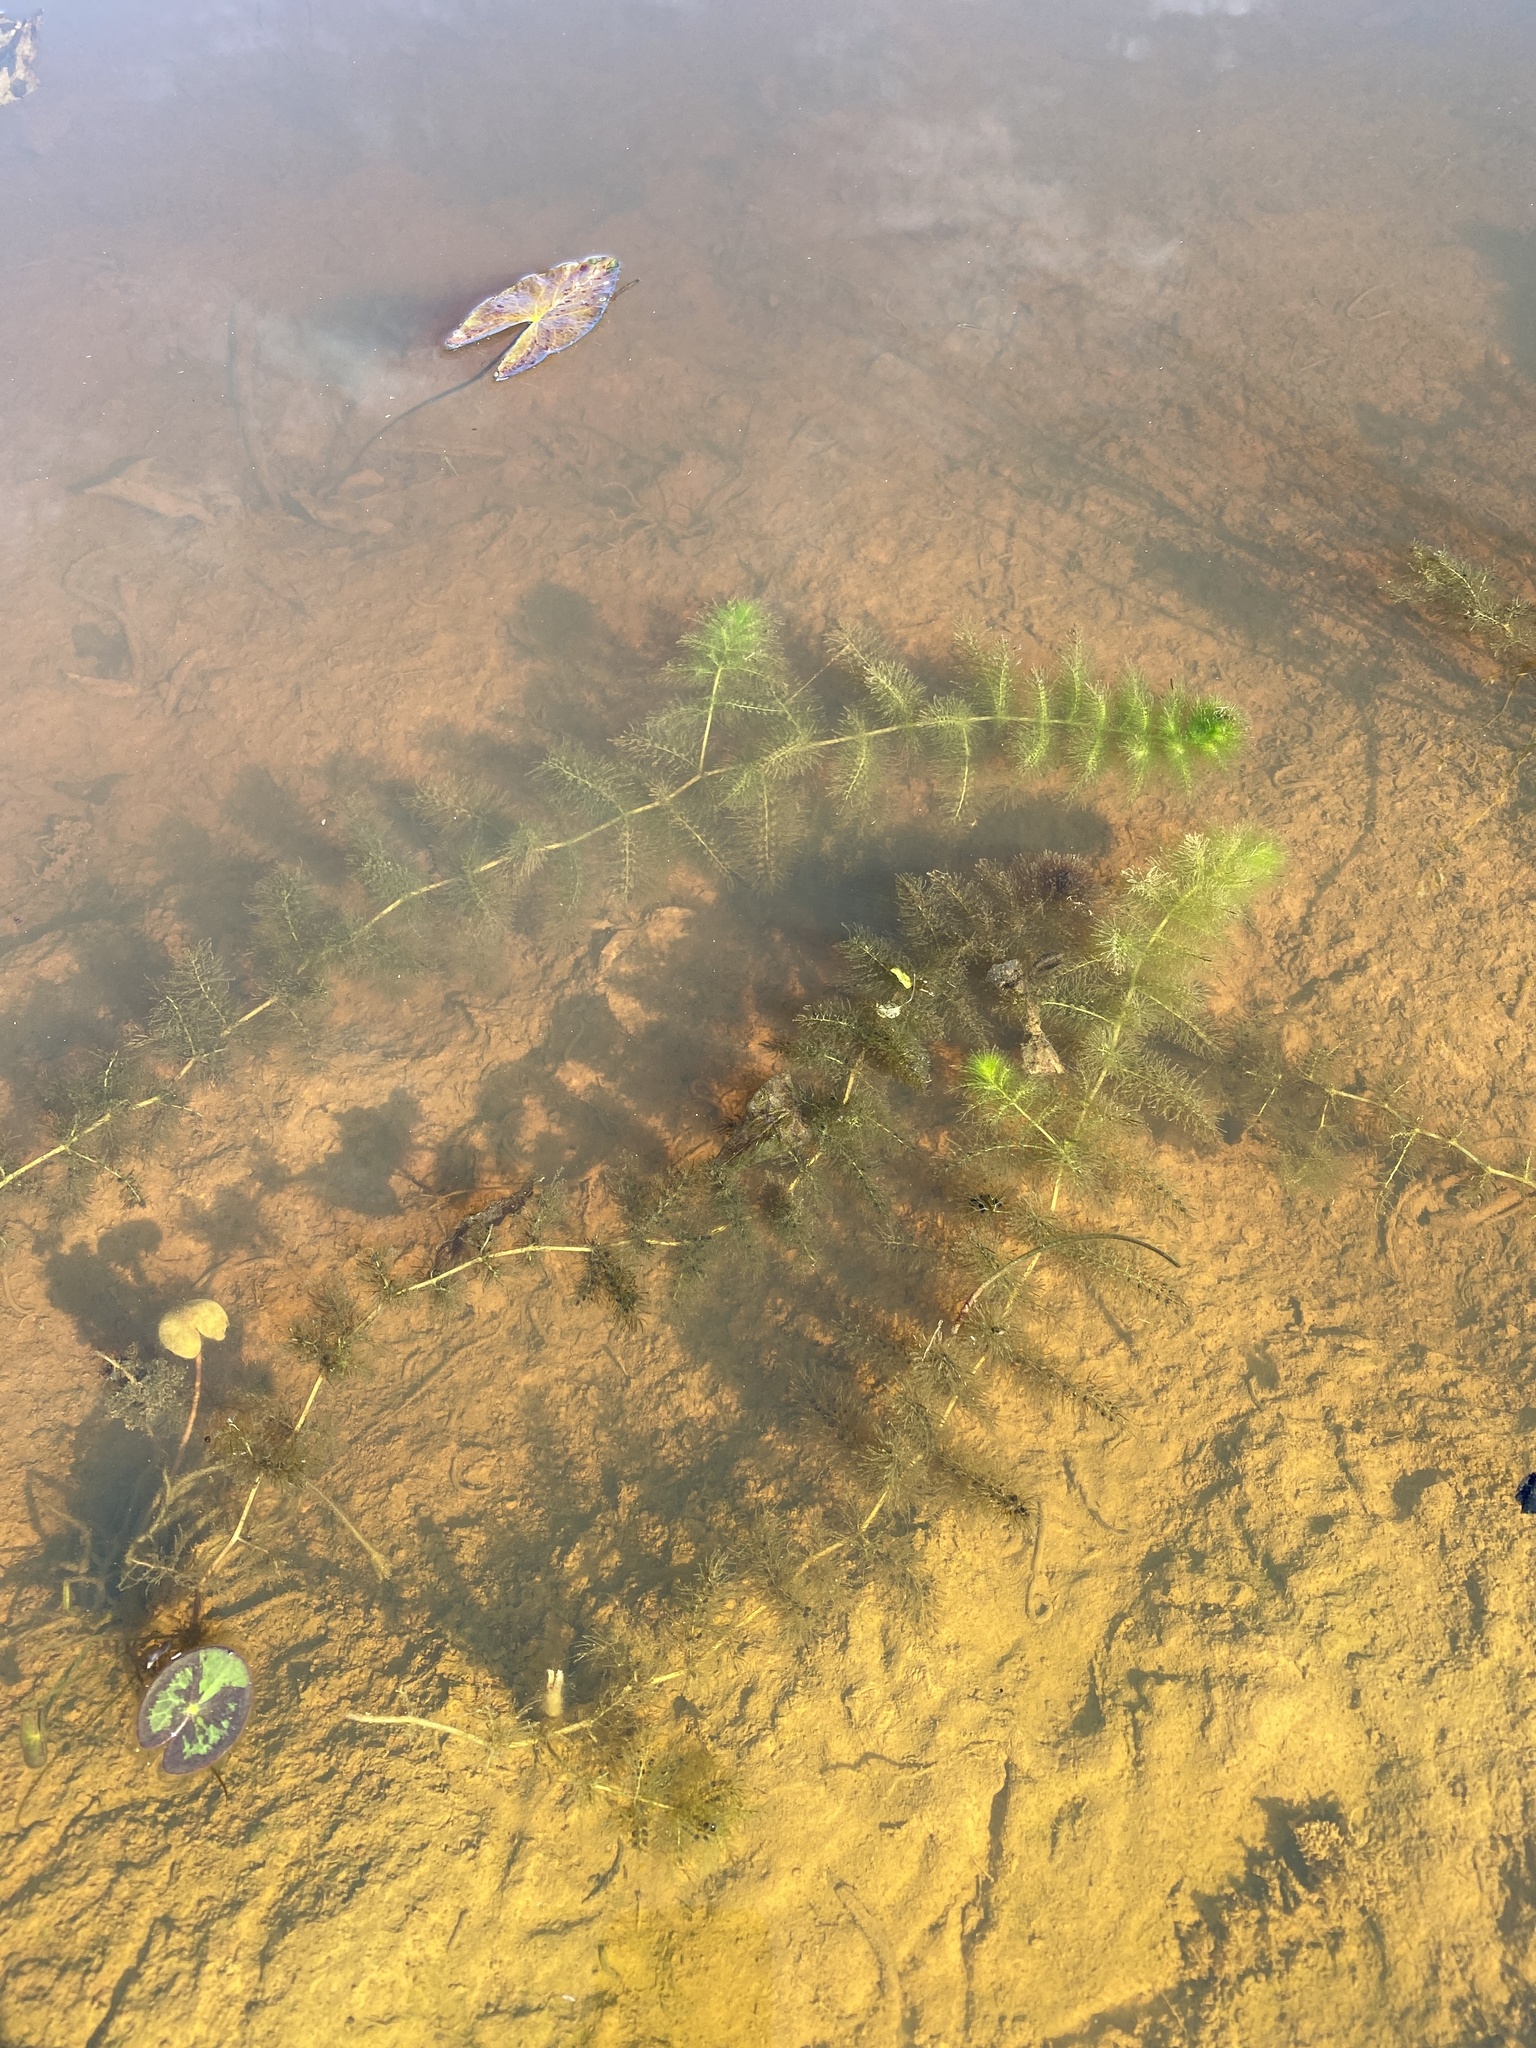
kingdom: Plantae
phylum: Tracheophyta
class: Magnoliopsida
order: Lamiales
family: Lentibulariaceae
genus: Utricularia
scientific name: Utricularia aurea
